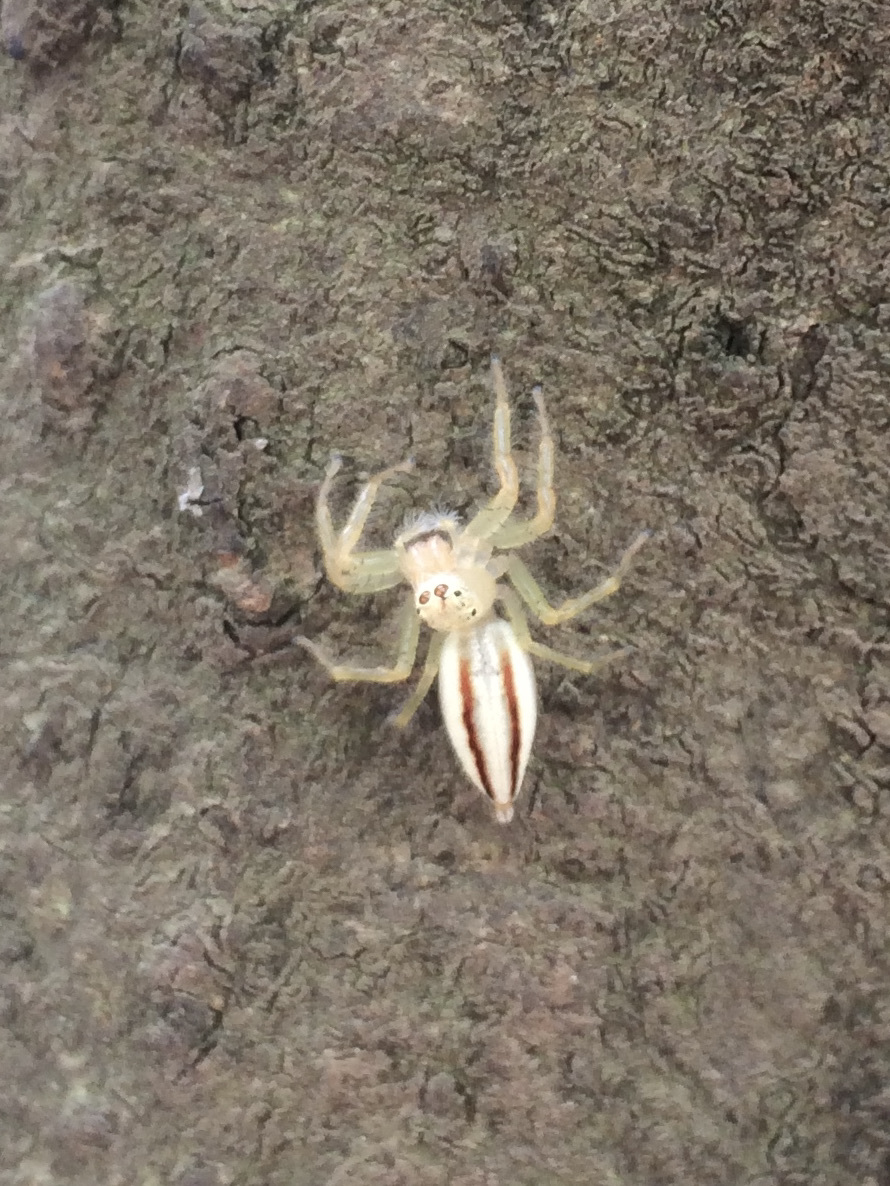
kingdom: Animalia
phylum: Arthropoda
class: Arachnida
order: Araneae
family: Salticidae
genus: Telamonia
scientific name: Telamonia dimidiata
